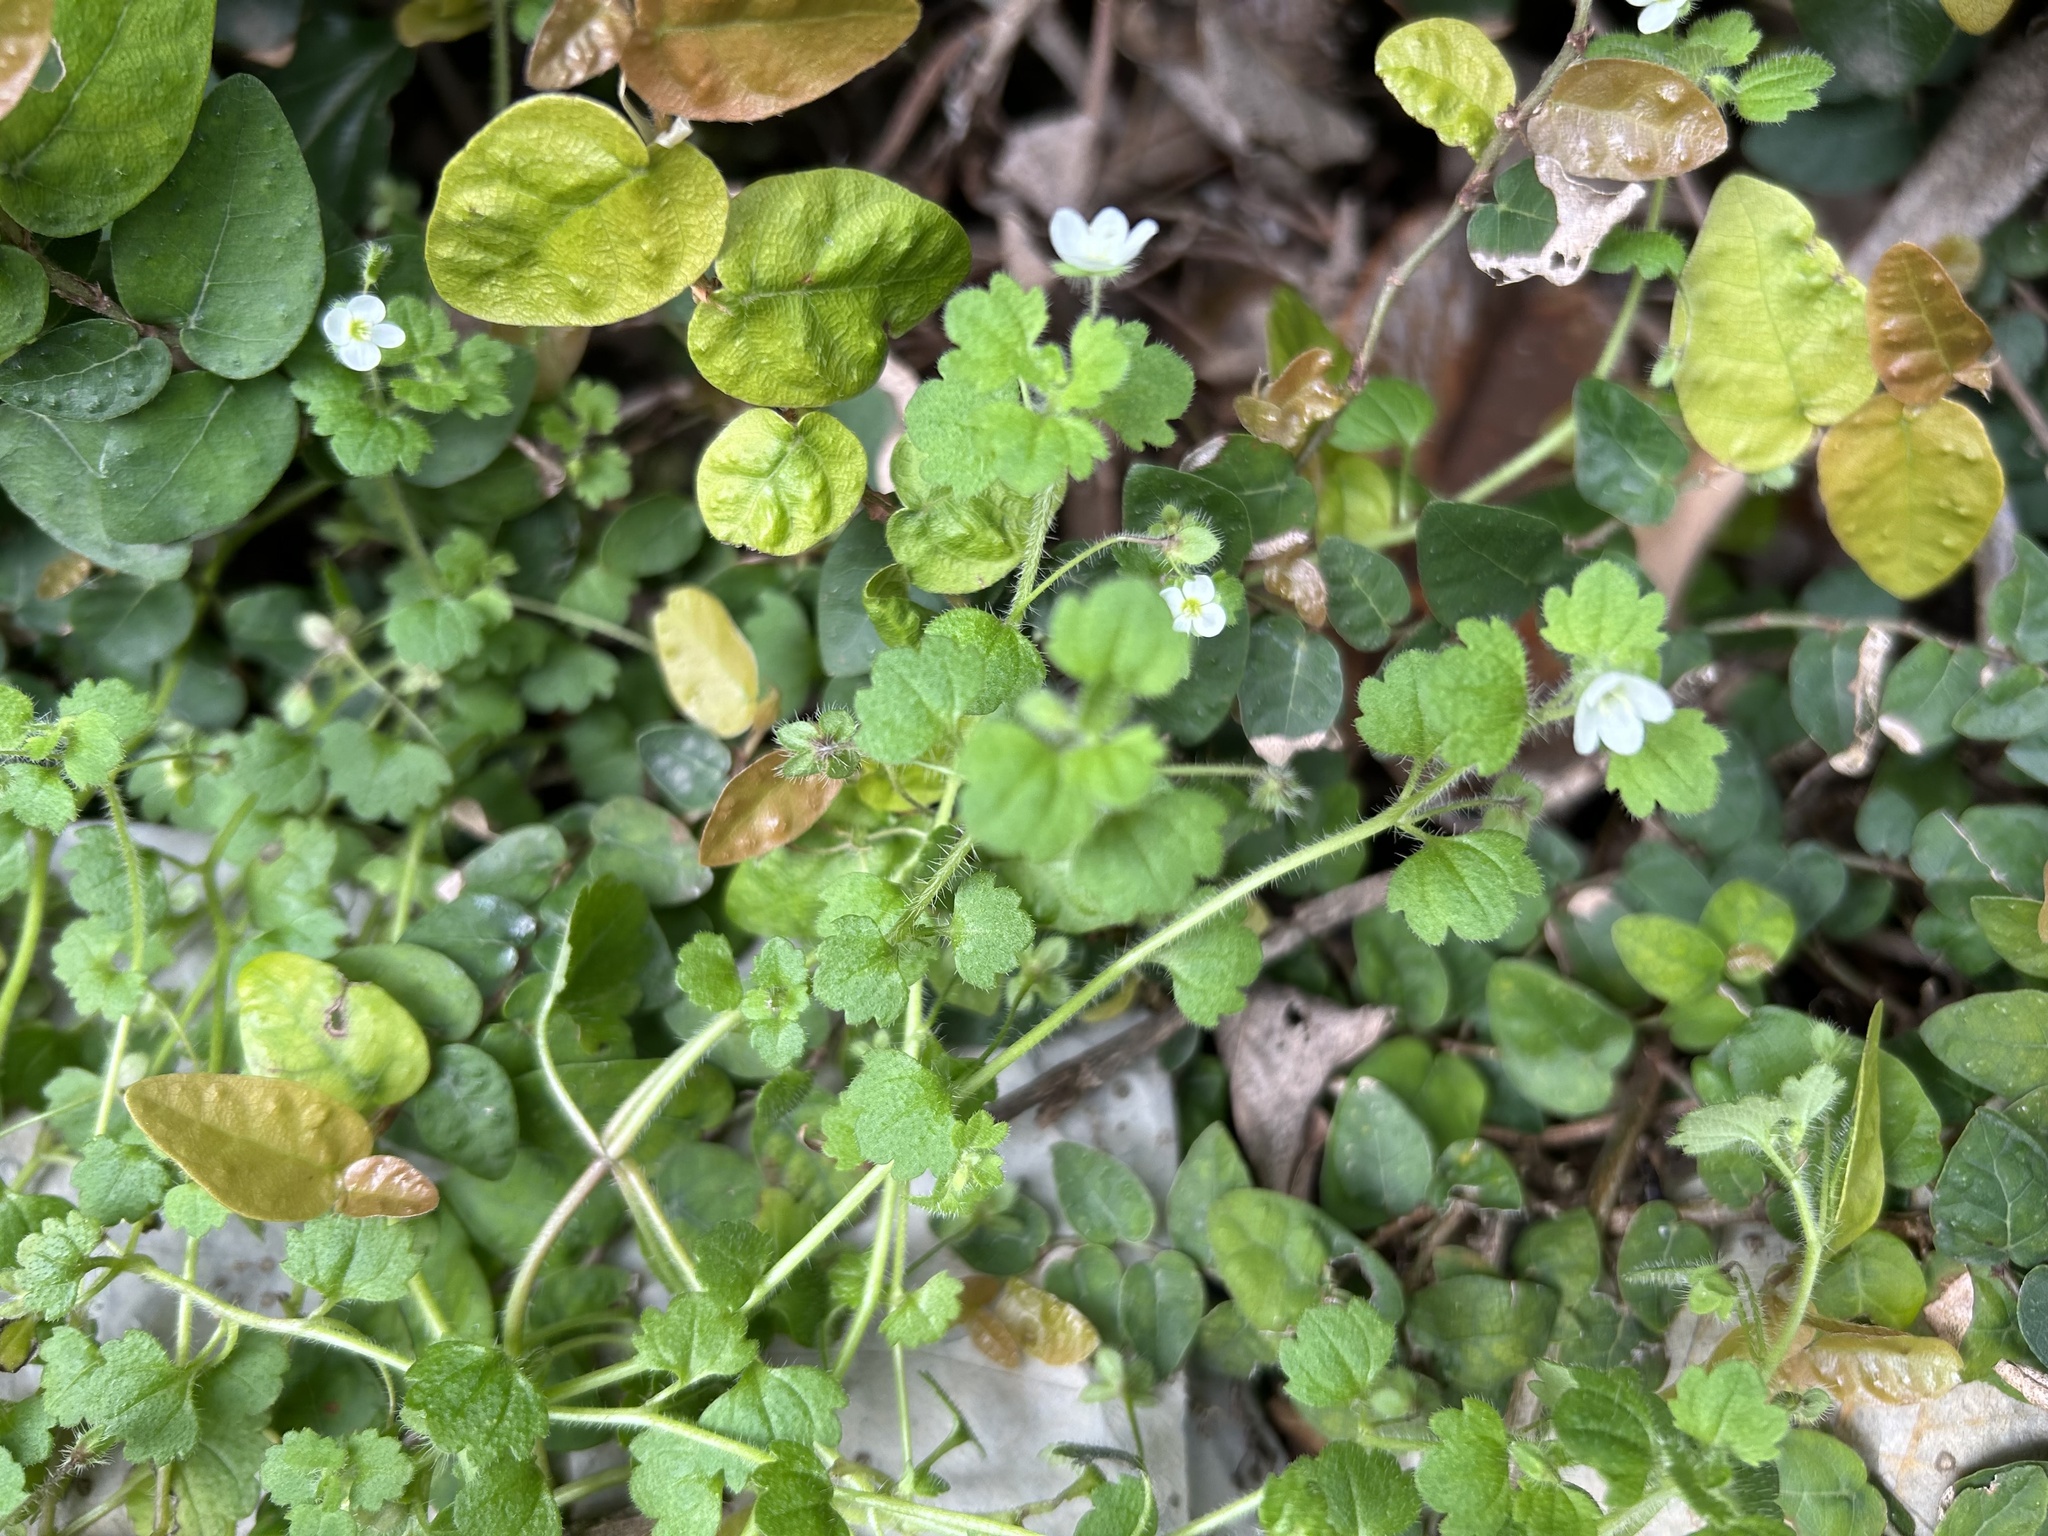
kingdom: Plantae
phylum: Tracheophyta
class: Magnoliopsida
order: Lamiales
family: Plantaginaceae
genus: Veronica
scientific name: Veronica cymbalaria
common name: Pale speedwell
